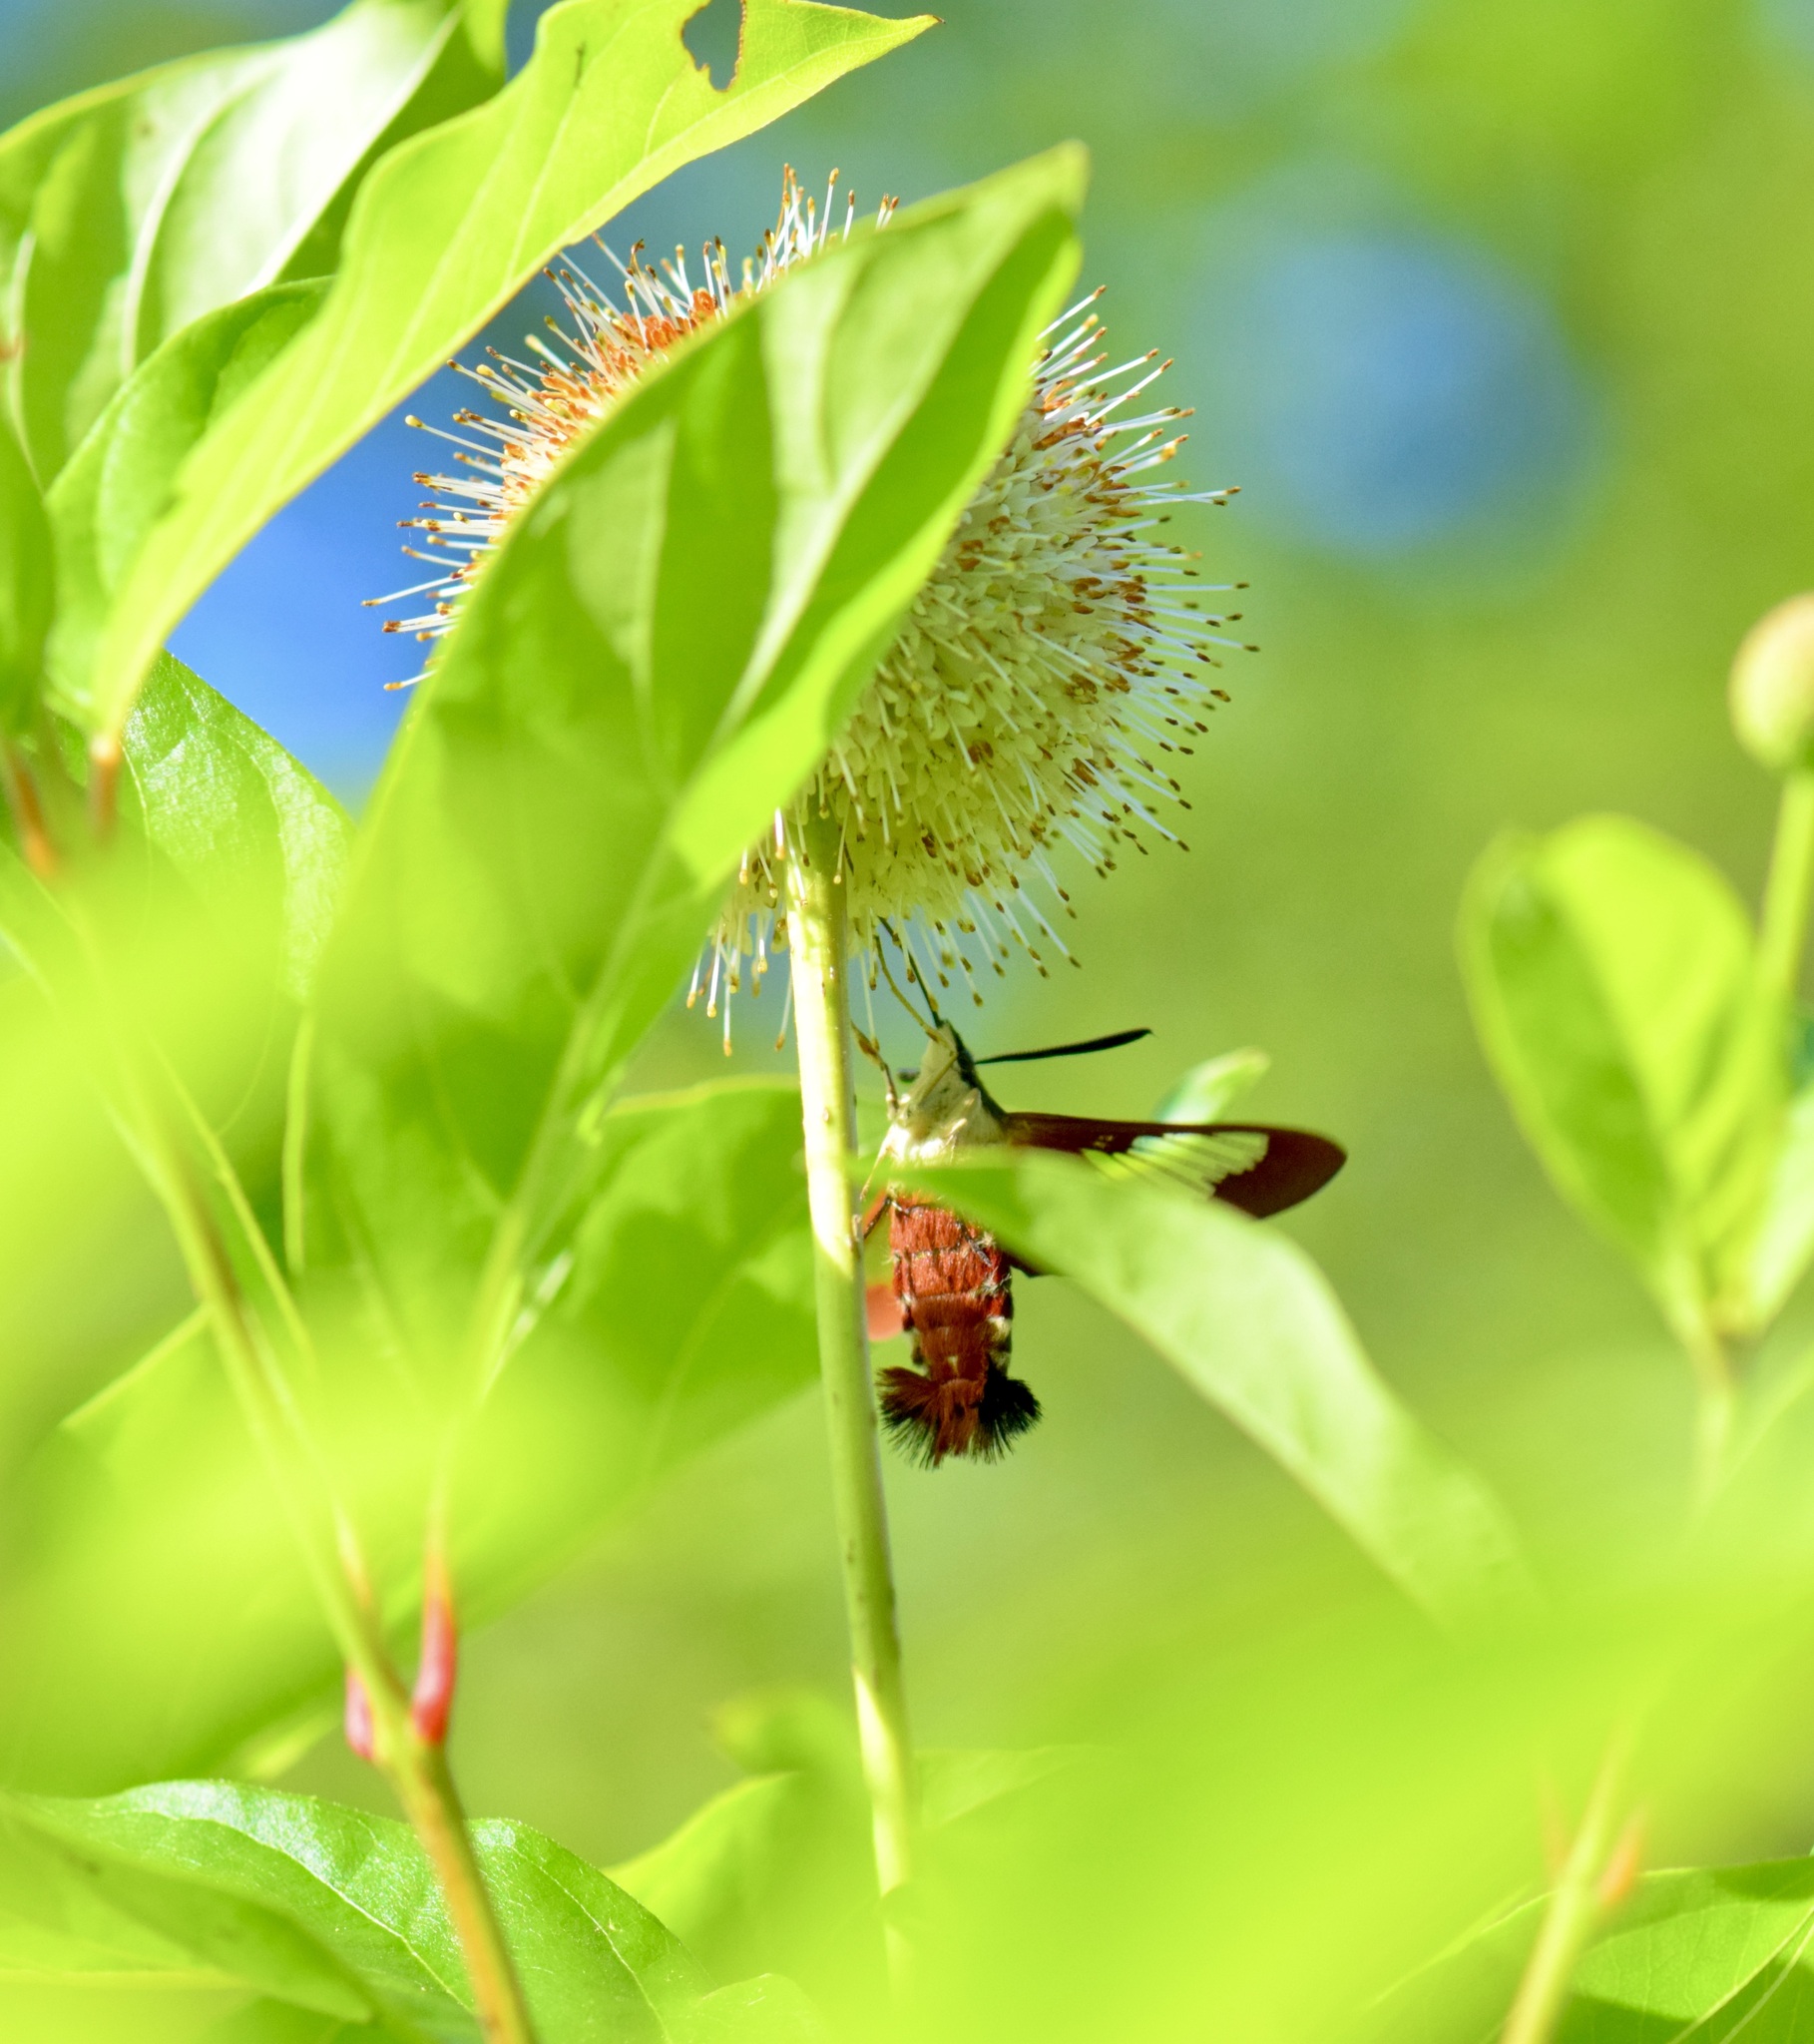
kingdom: Animalia
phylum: Arthropoda
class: Insecta
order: Lepidoptera
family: Sphingidae
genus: Hemaris
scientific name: Hemaris thysbe
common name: Common clear-wing
